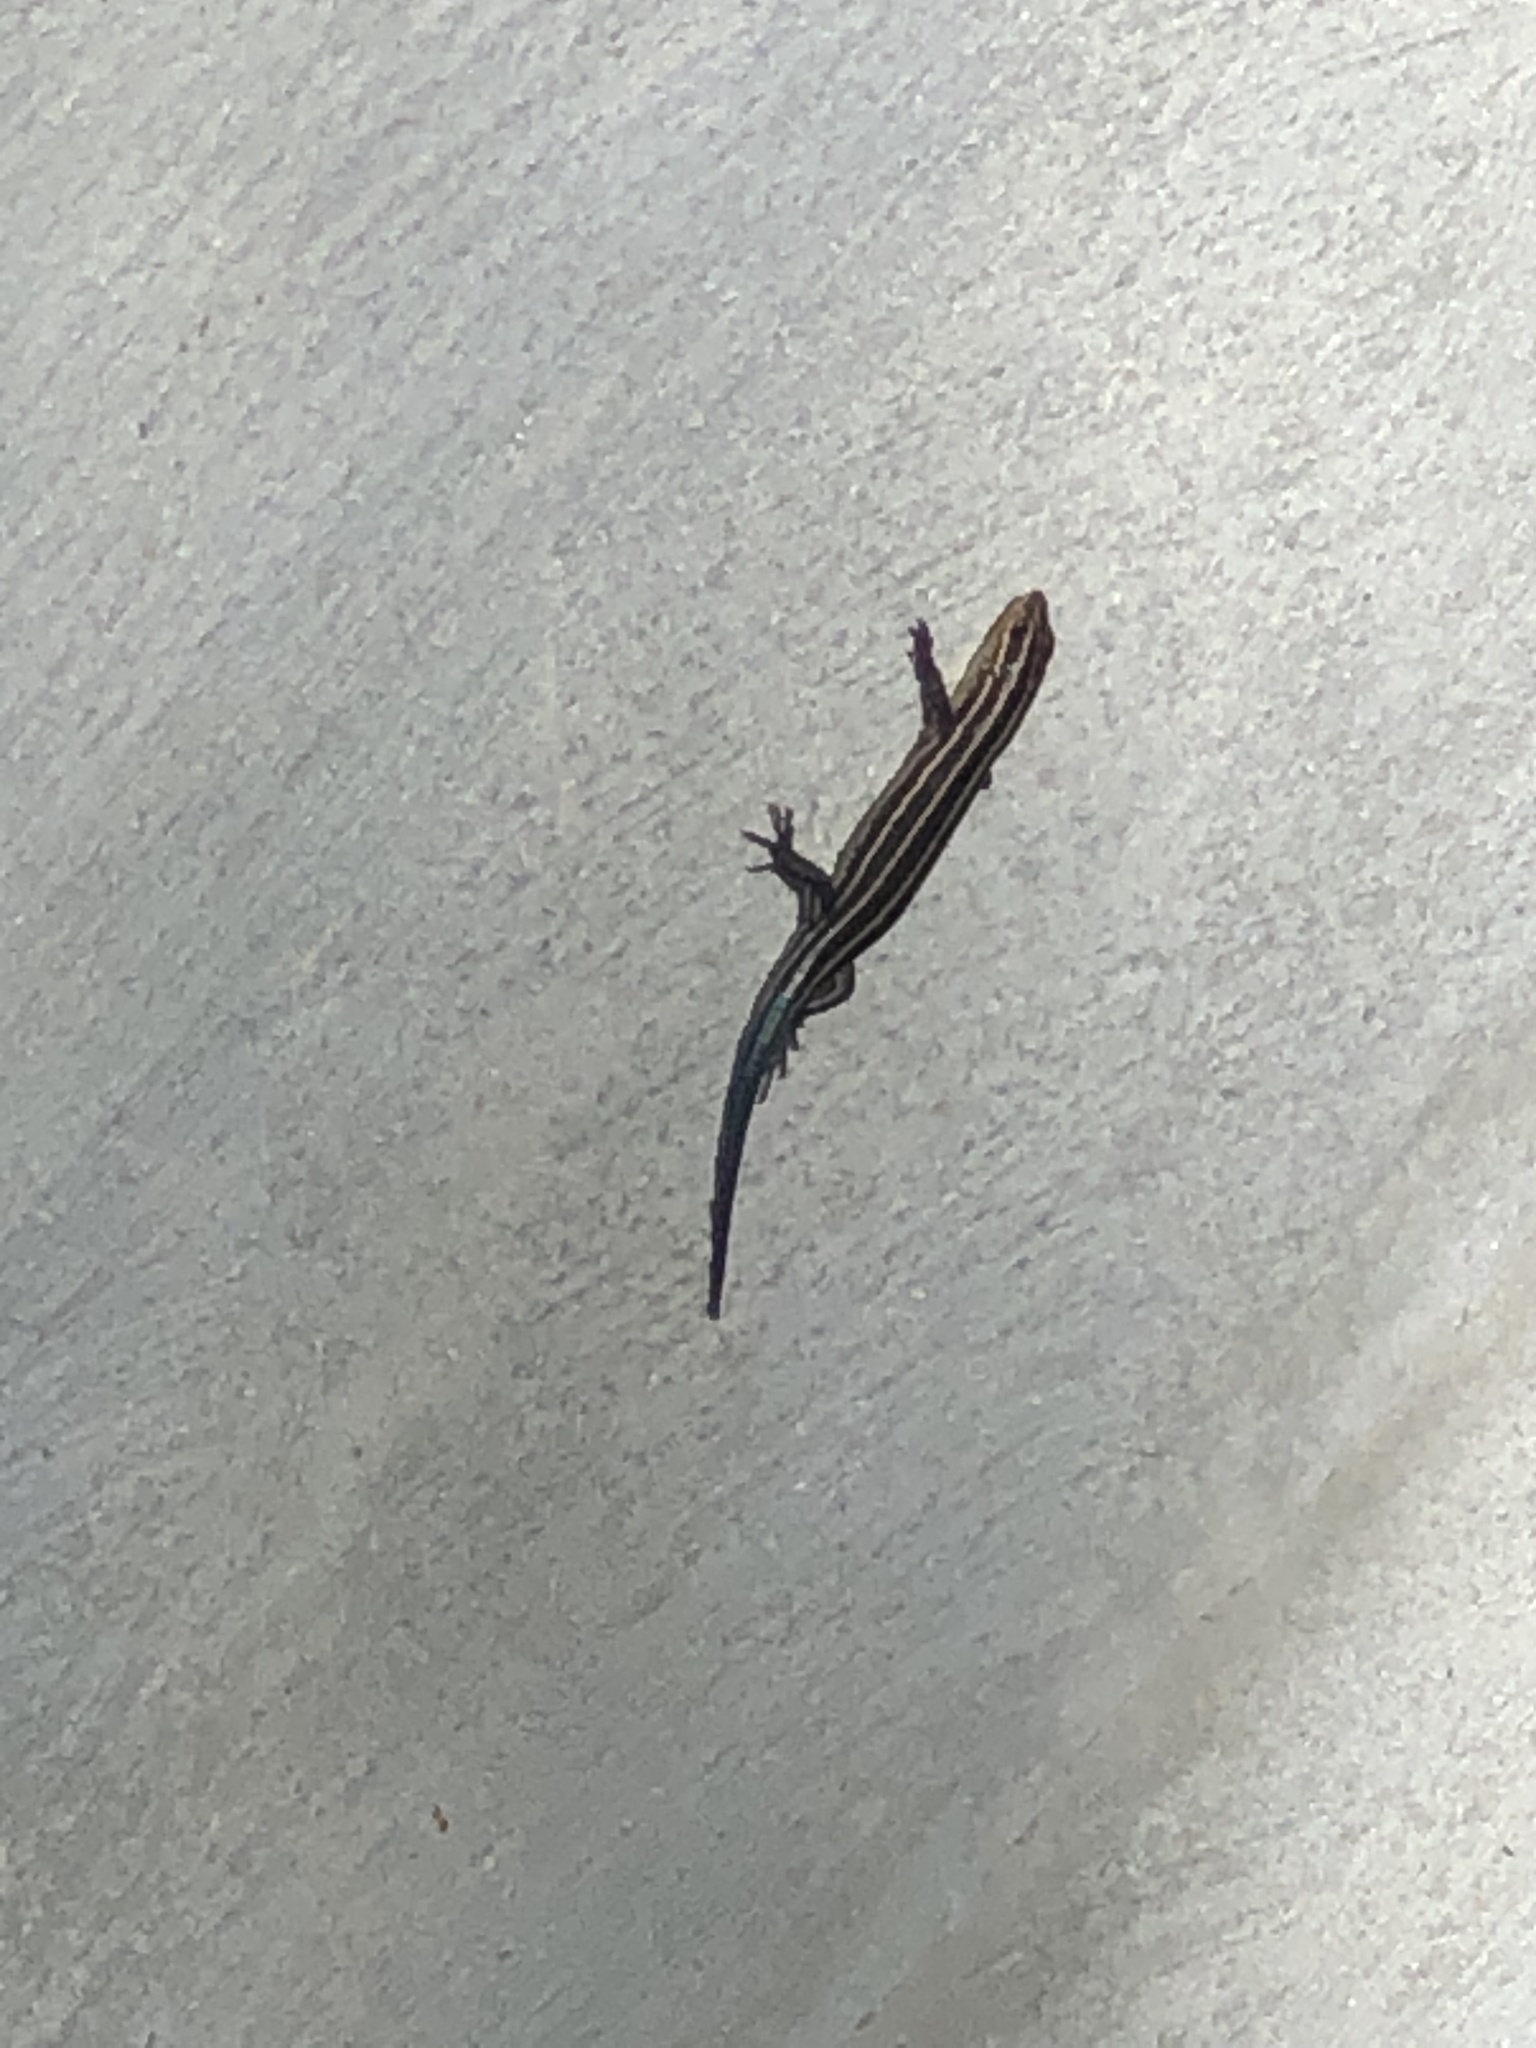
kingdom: Animalia
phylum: Chordata
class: Squamata
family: Scincidae
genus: Plestiodon
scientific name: Plestiodon laticeps
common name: Broadhead skink
